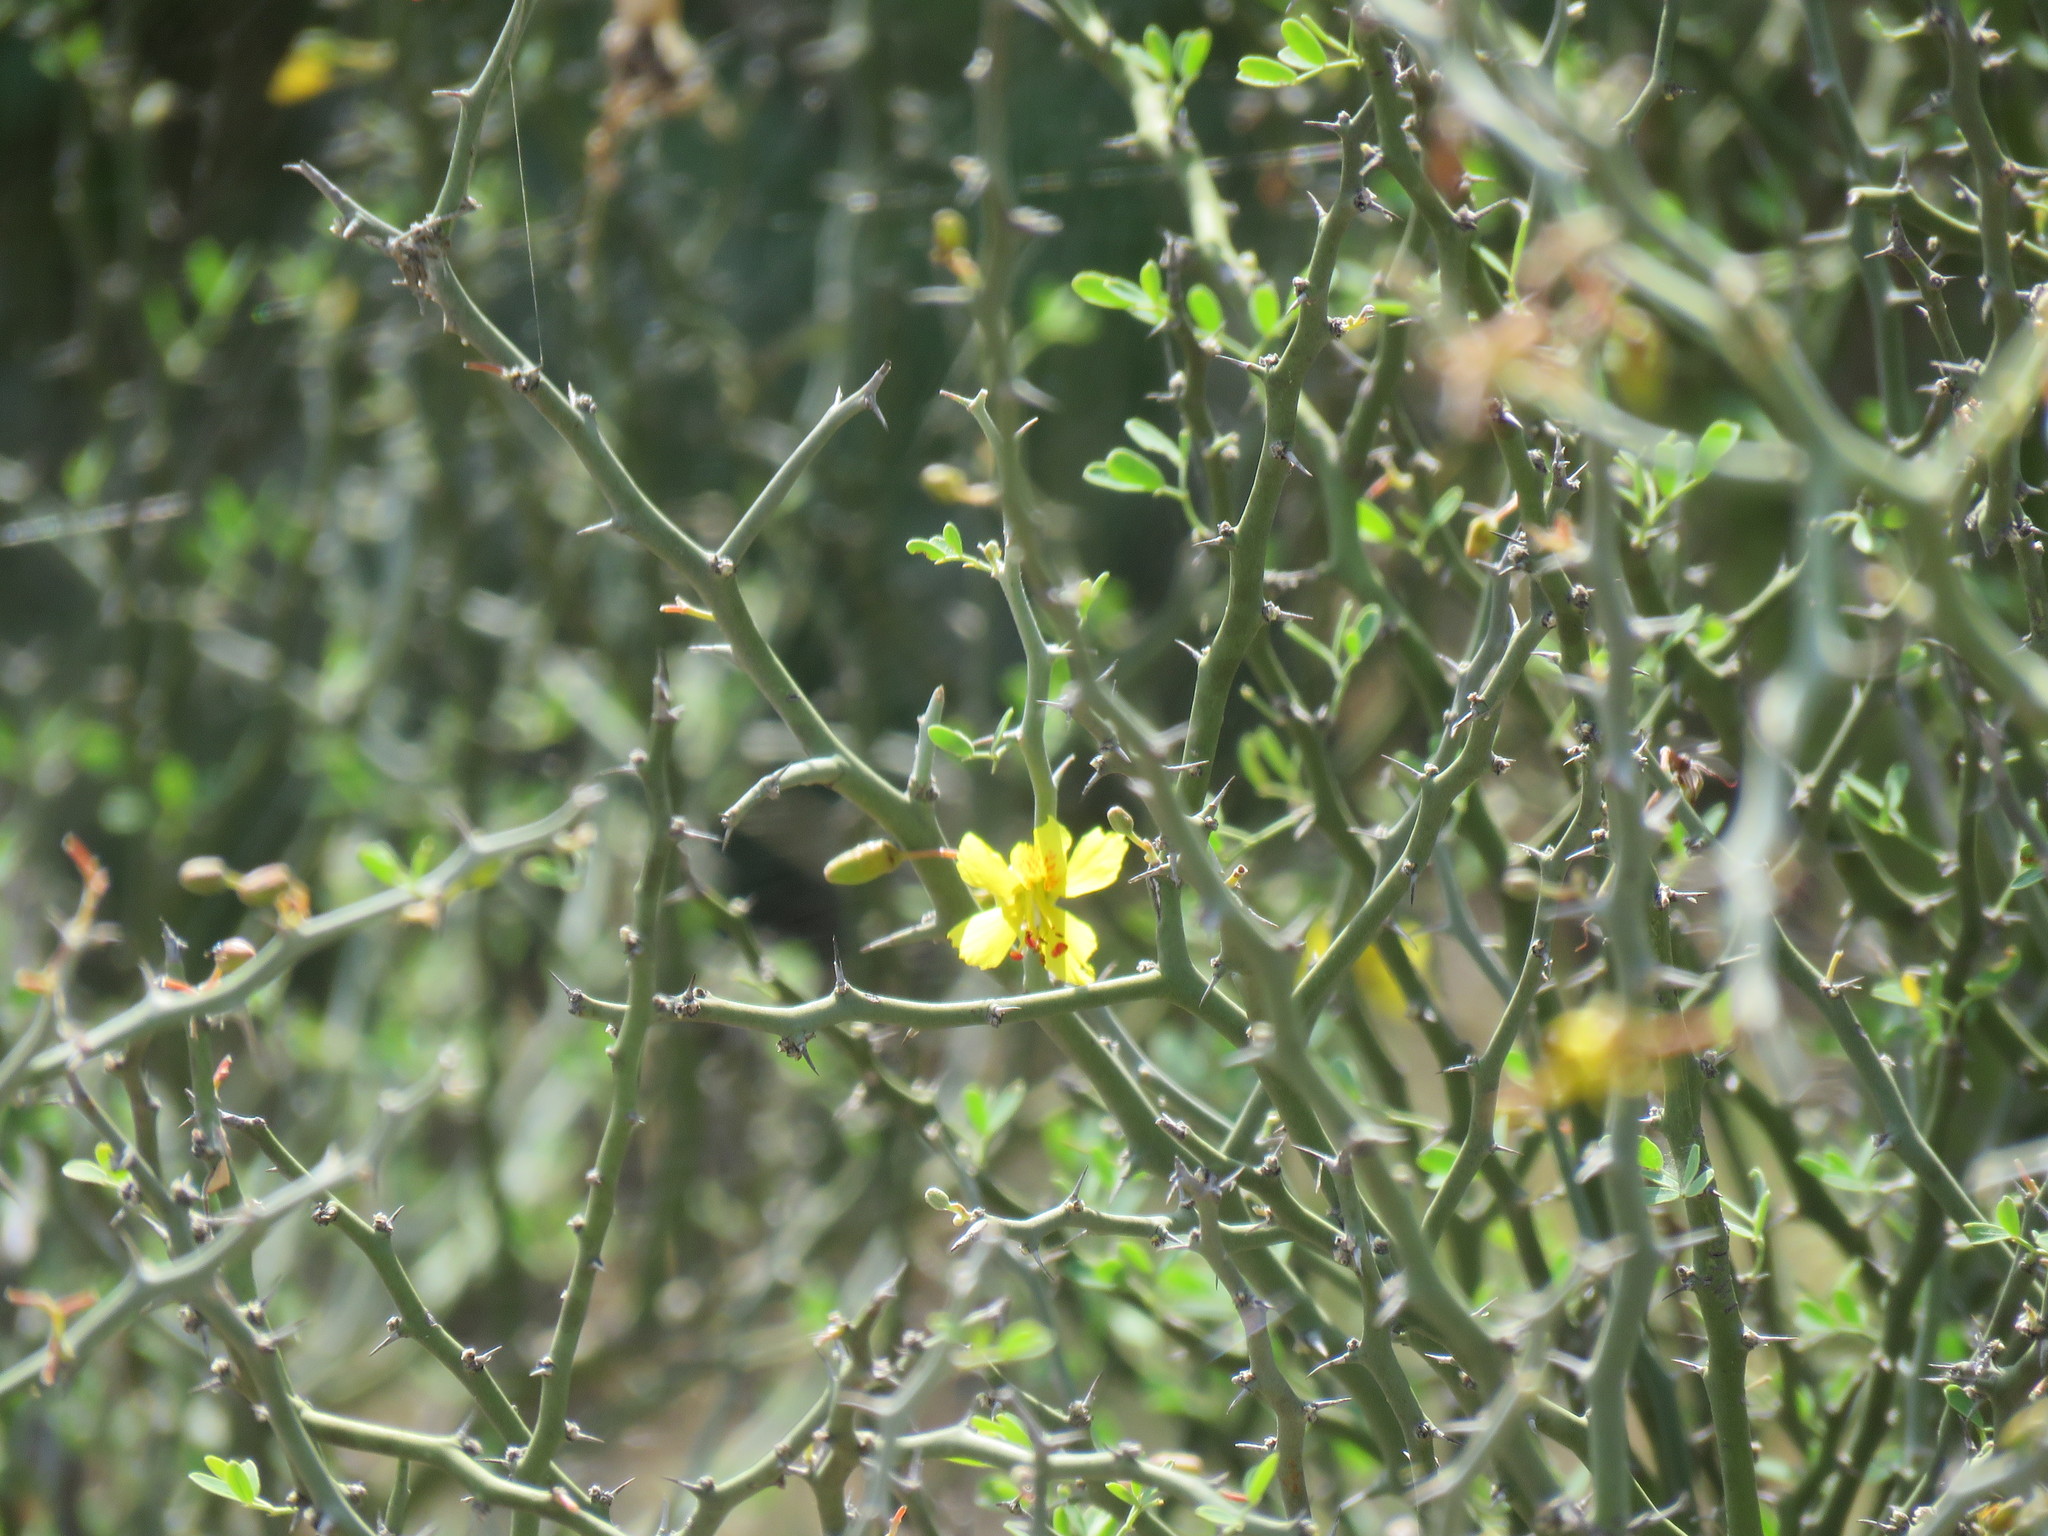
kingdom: Plantae
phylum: Tracheophyta
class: Magnoliopsida
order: Fabales
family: Fabaceae
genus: Parkinsonia
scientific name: Parkinsonia texana
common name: Texas paloverde
